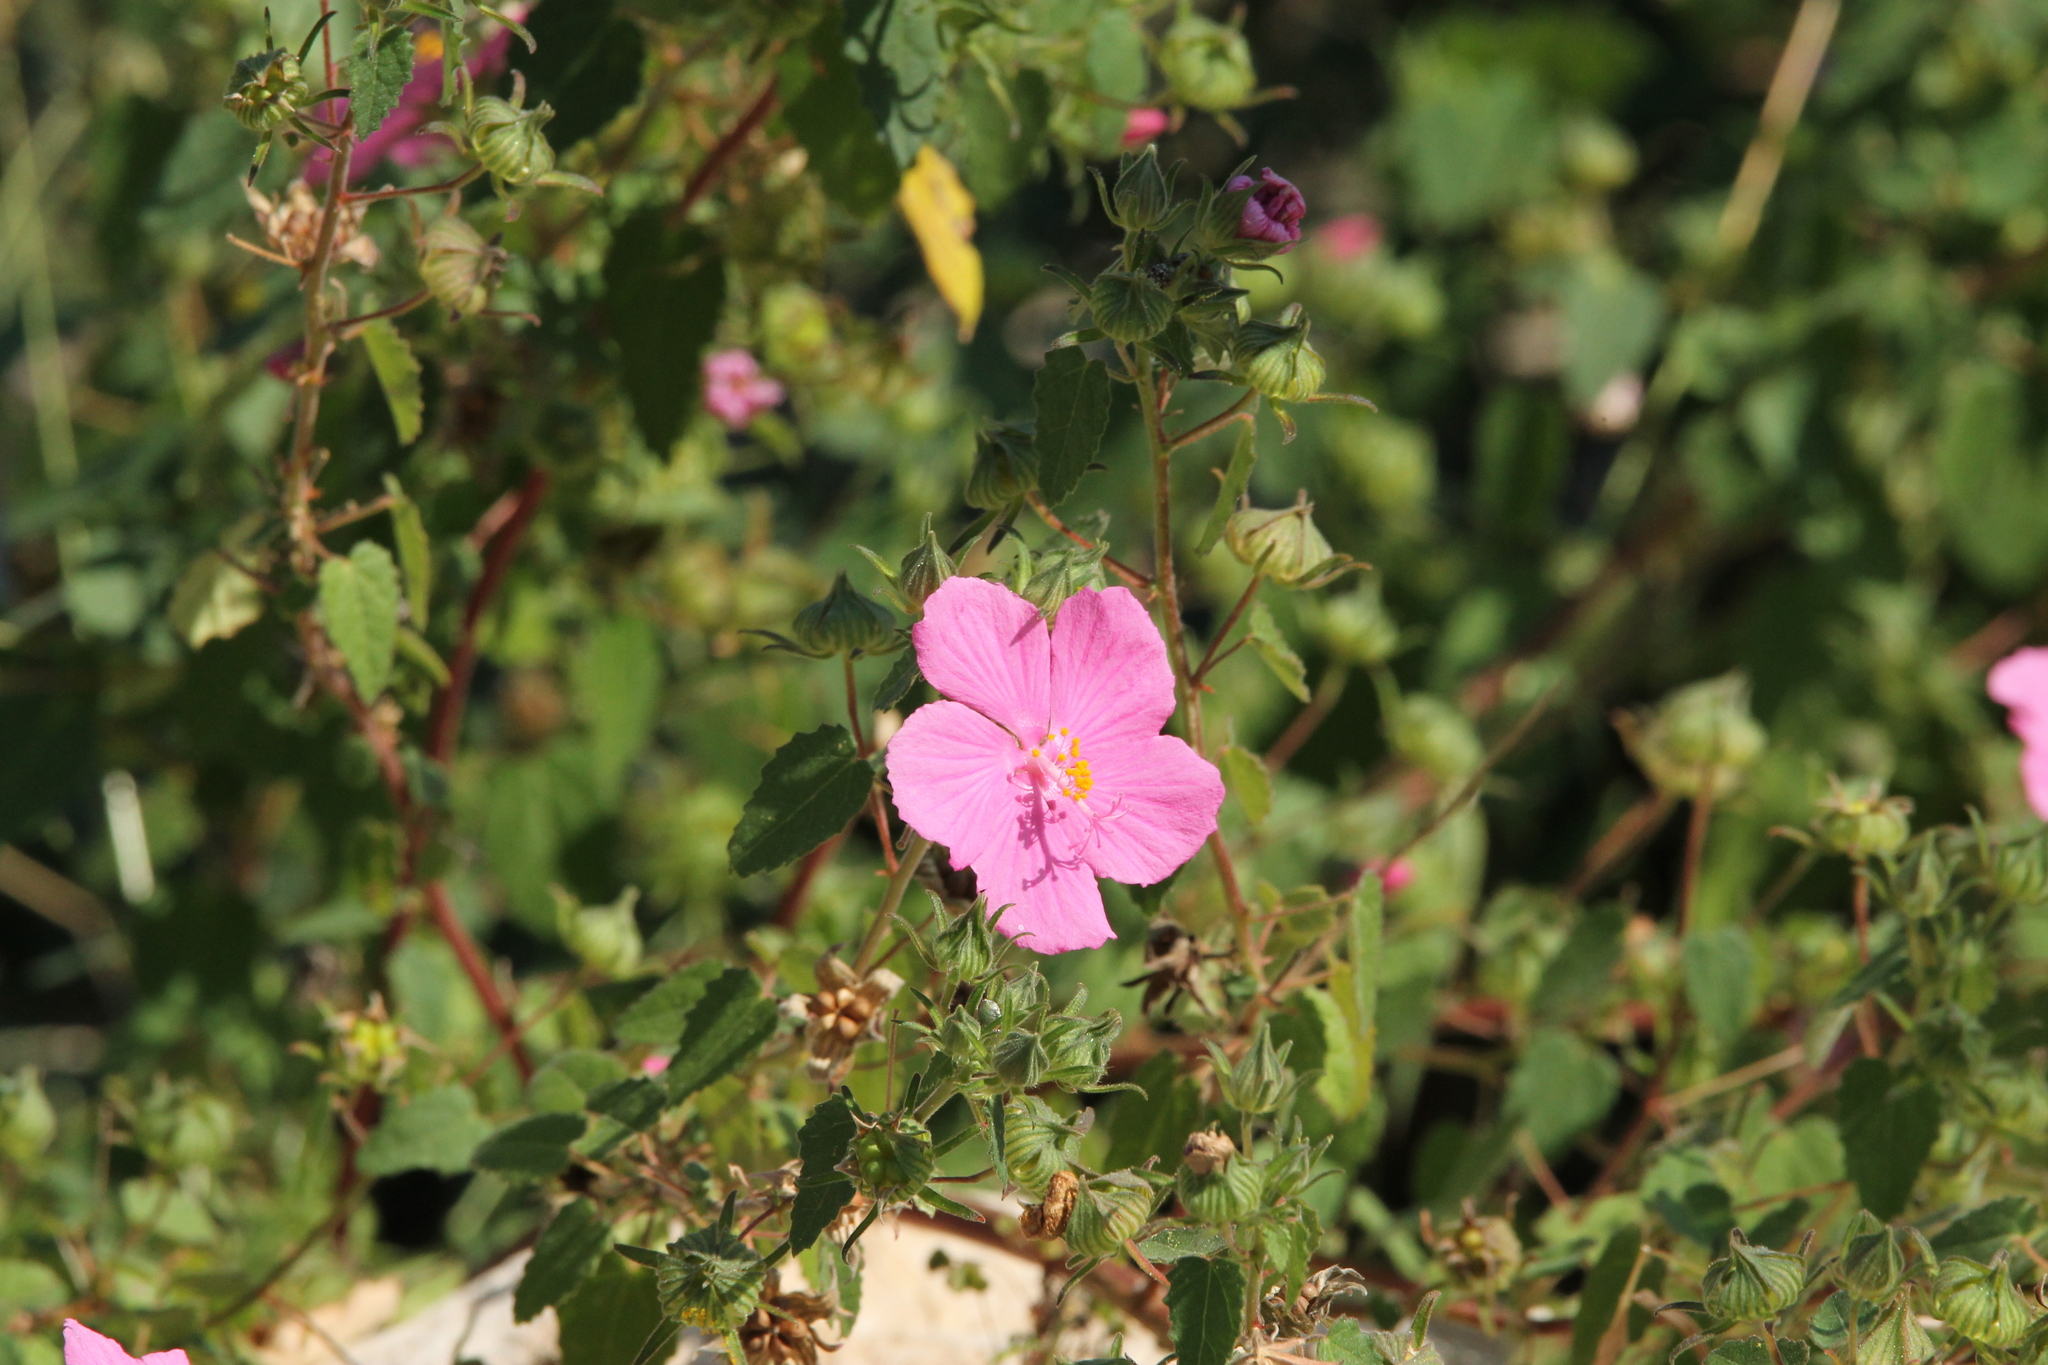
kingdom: Plantae
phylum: Tracheophyta
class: Magnoliopsida
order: Malvales
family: Malvaceae
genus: Pavonia
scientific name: Pavonia lasiopetala
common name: Texas swamp-mallow
